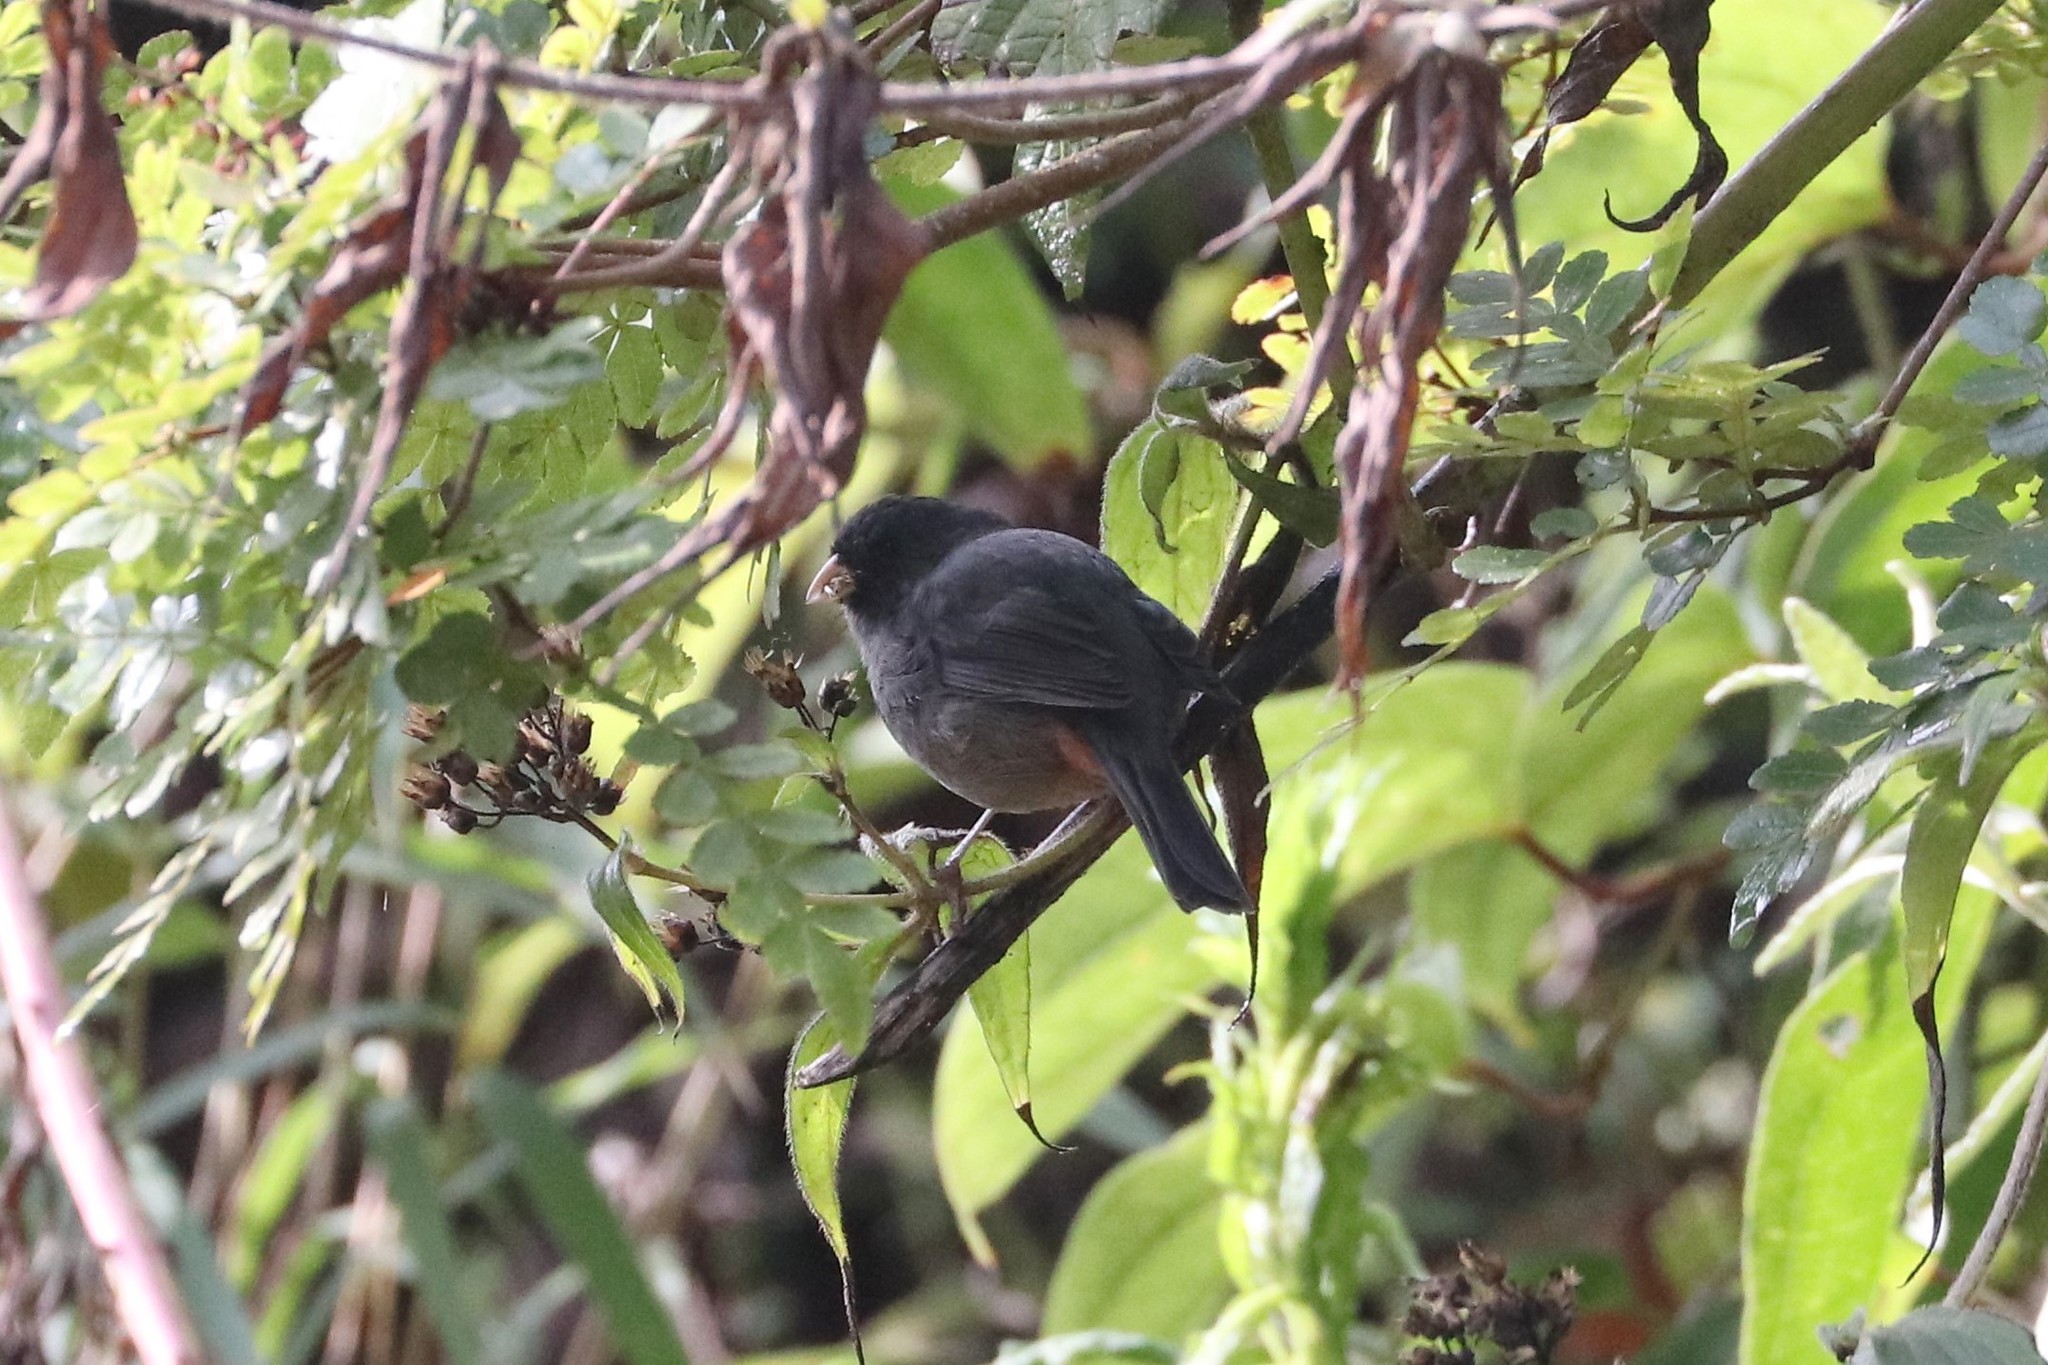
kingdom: Animalia
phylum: Chordata
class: Aves
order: Passeriformes
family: Thraupidae
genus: Catamenia
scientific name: Catamenia homochroa
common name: Paramo seedeater
